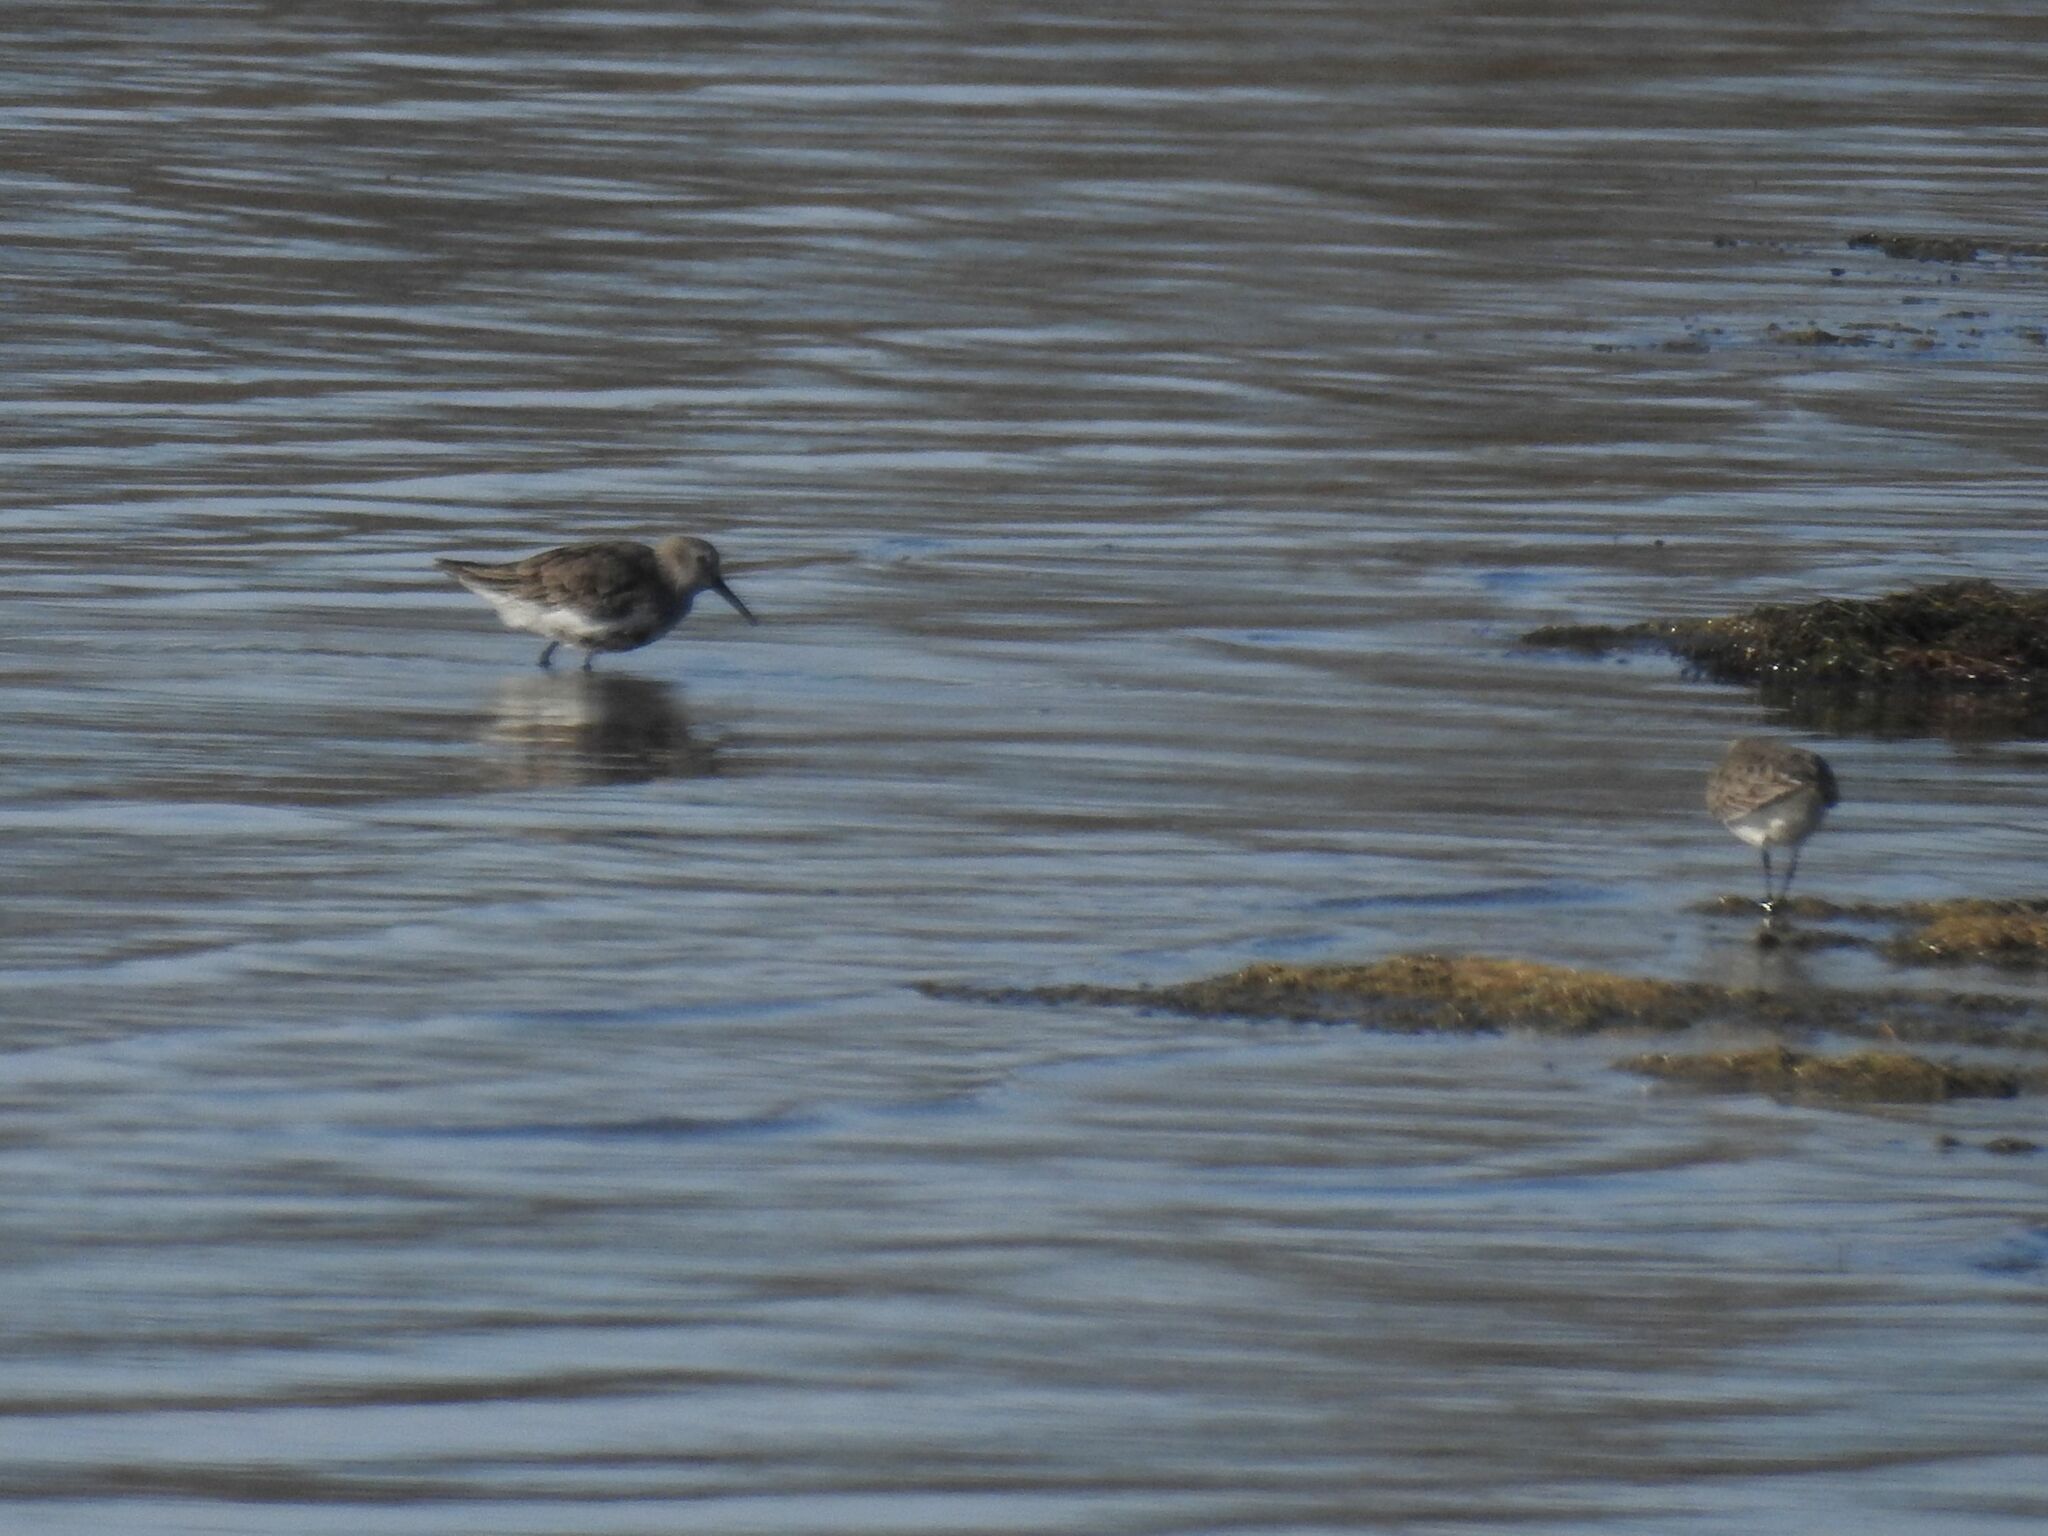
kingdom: Animalia
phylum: Chordata
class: Aves
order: Charadriiformes
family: Scolopacidae
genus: Calidris
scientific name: Calidris alpina
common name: Dunlin
